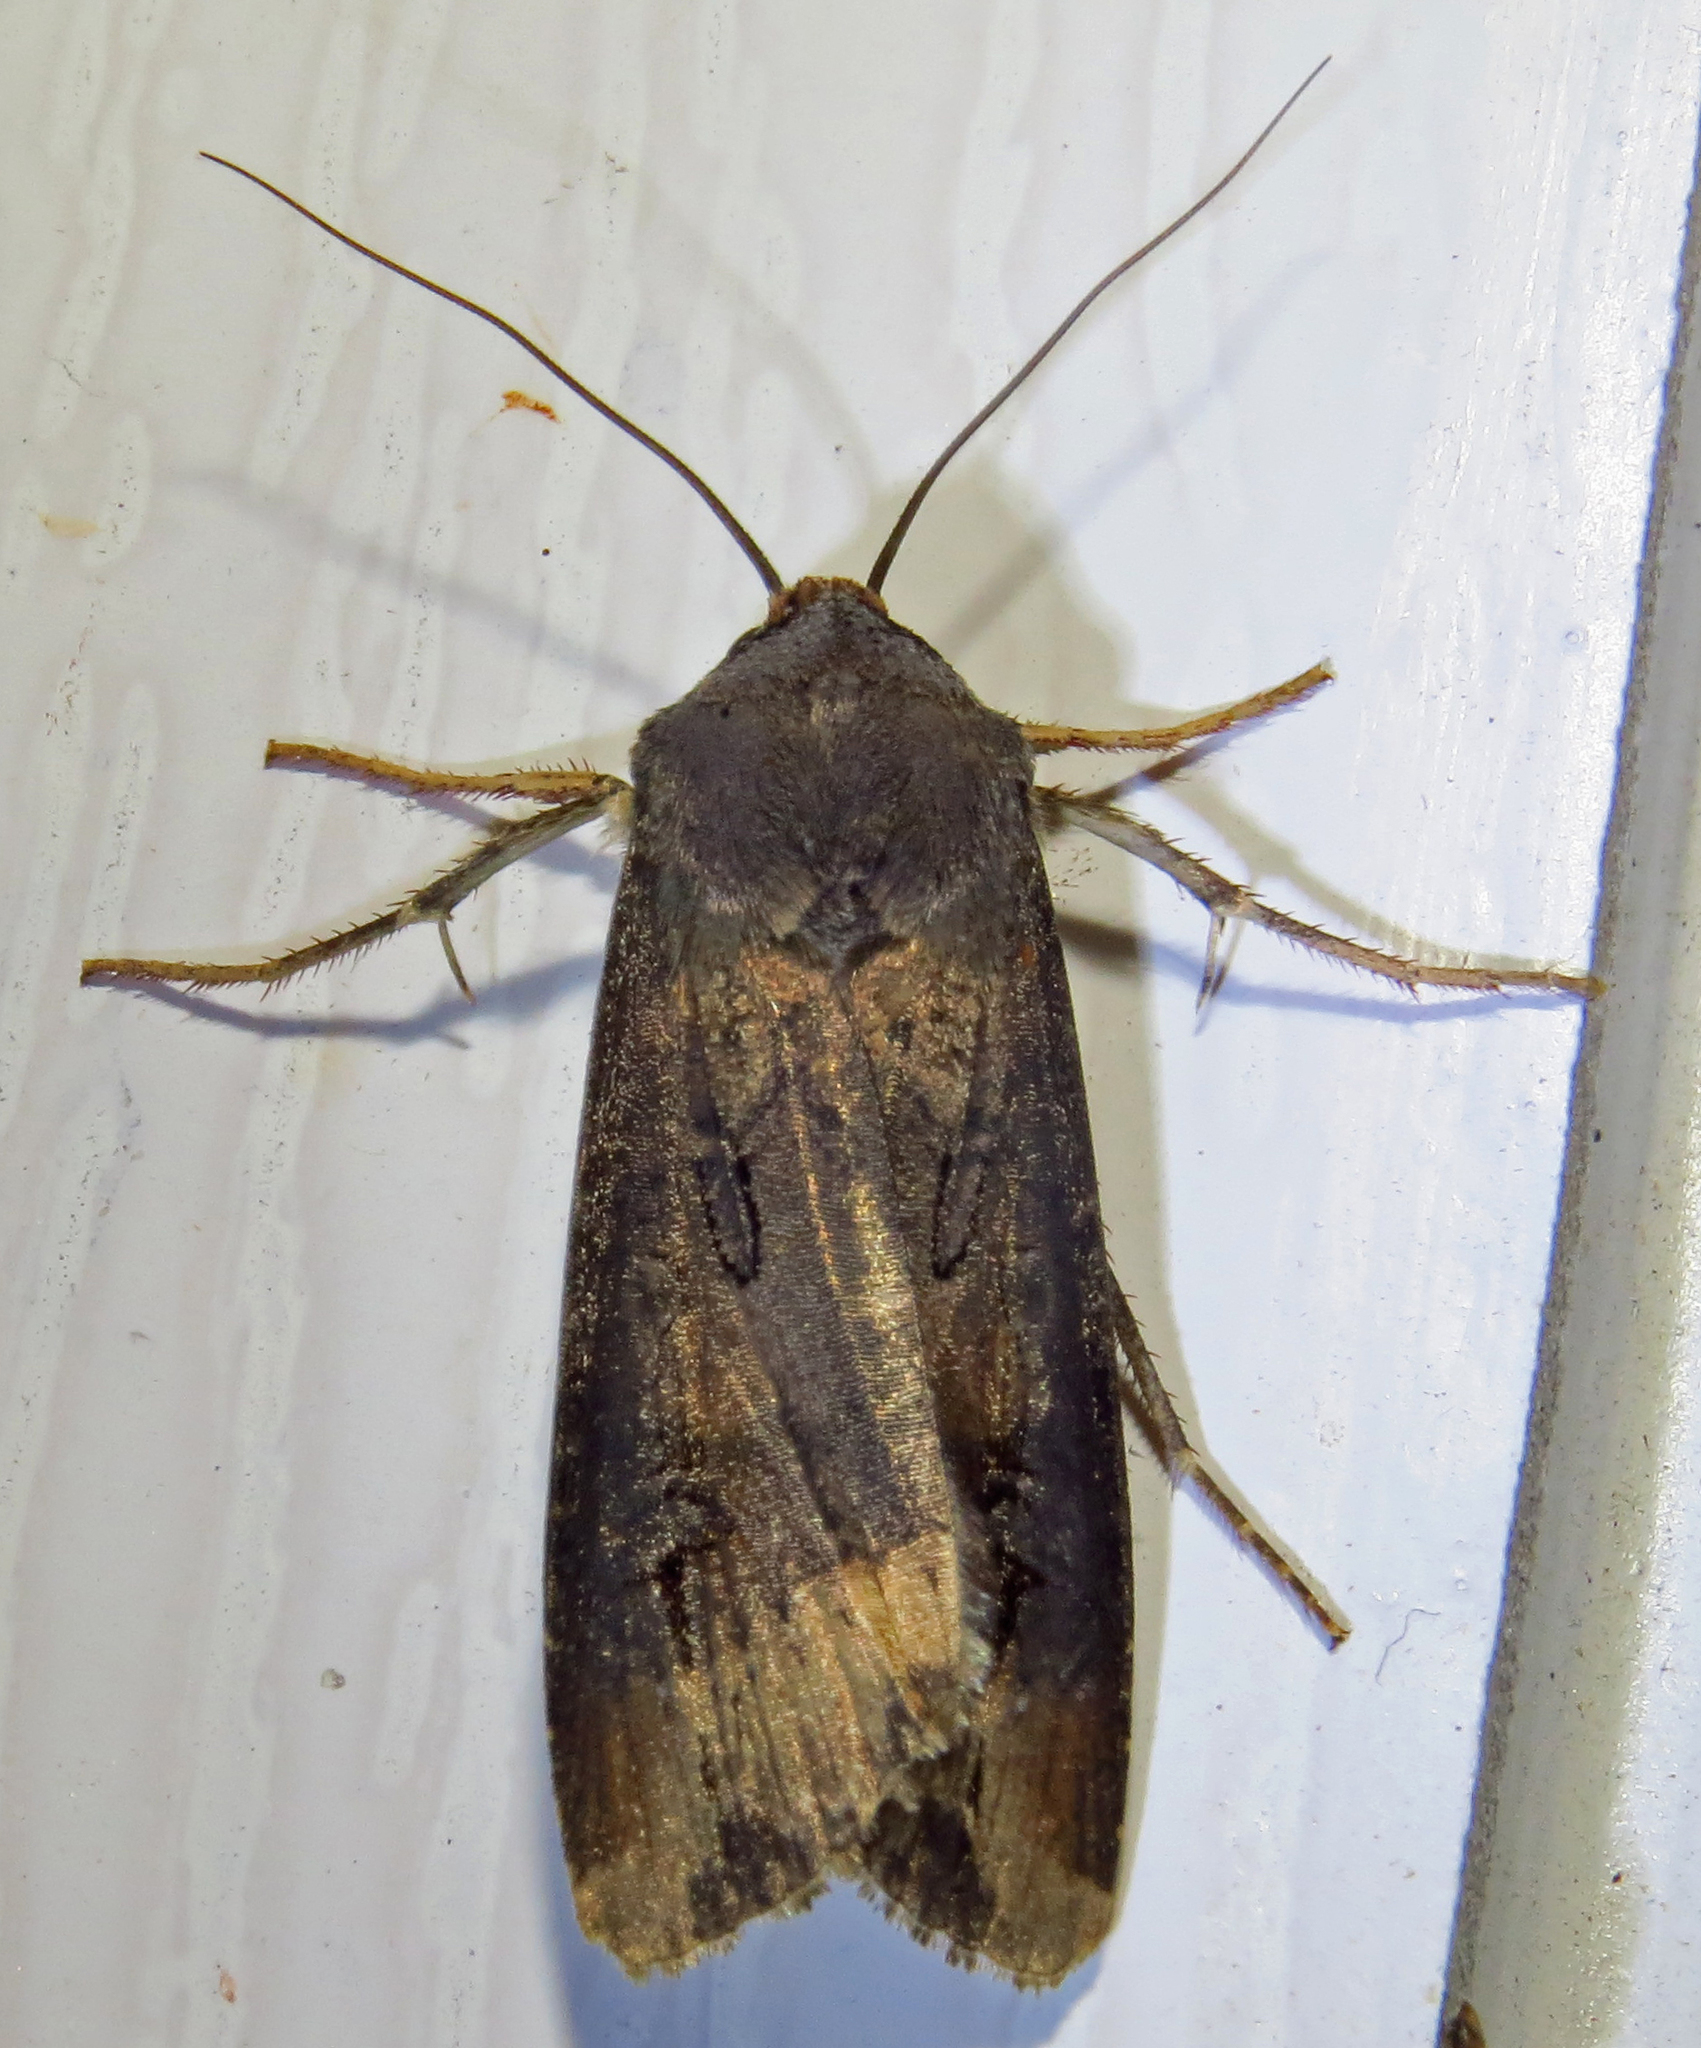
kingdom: Animalia
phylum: Arthropoda
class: Insecta
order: Lepidoptera
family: Noctuidae
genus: Agrotis
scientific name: Agrotis ipsilon
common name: Dark sword-grass
